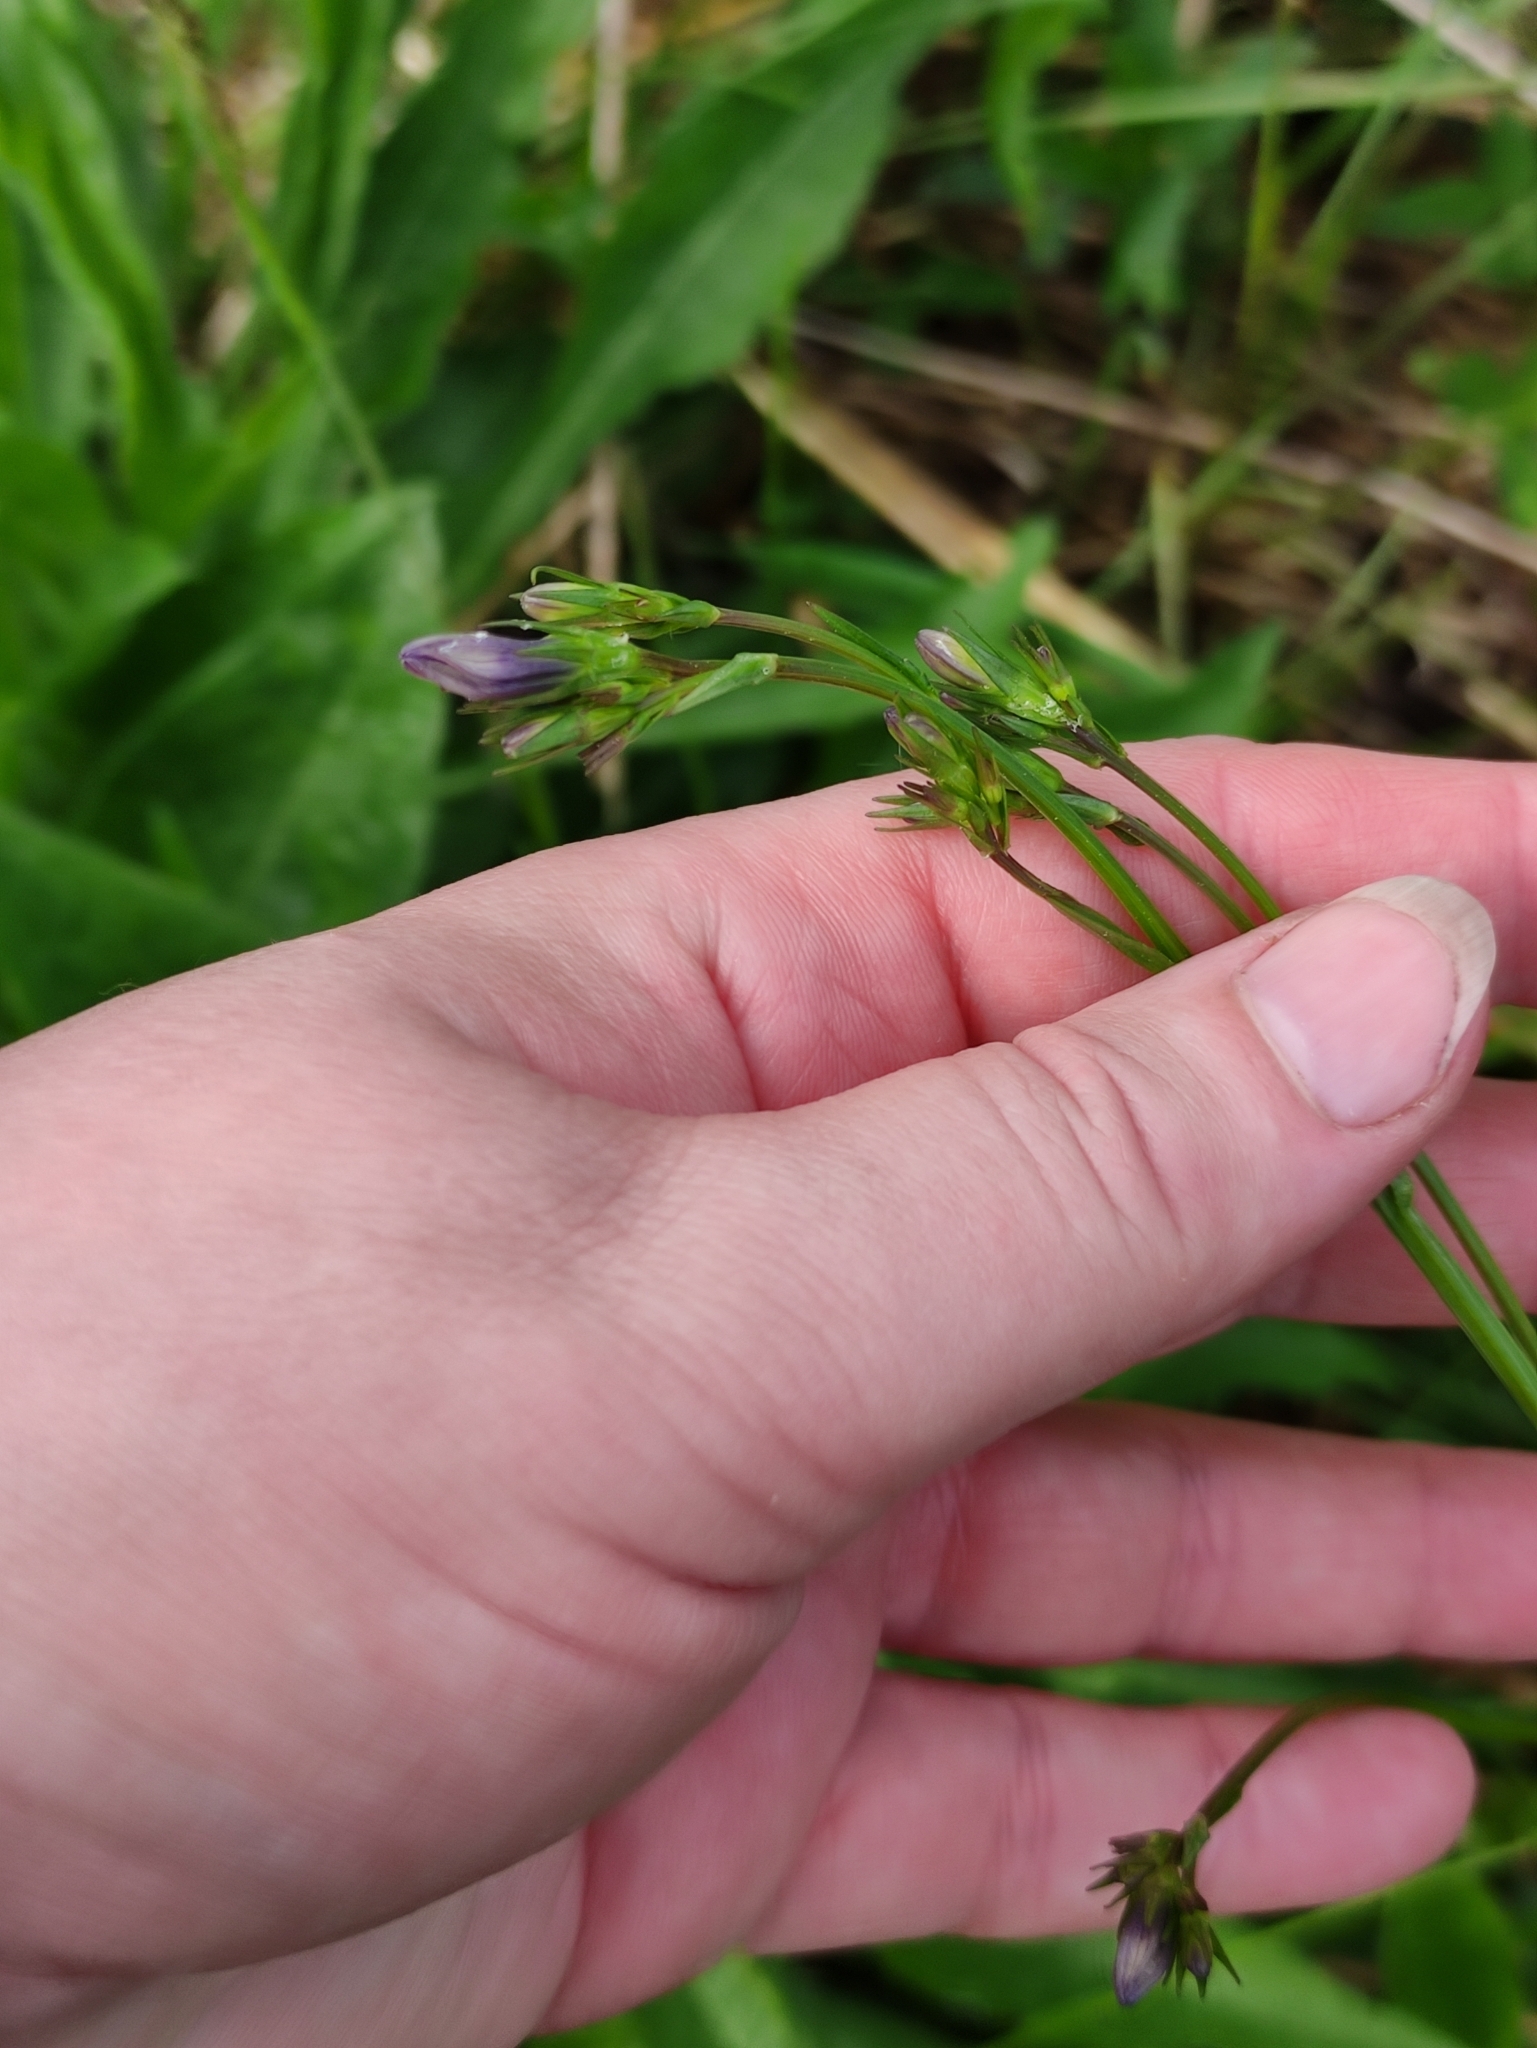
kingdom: Plantae
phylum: Tracheophyta
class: Magnoliopsida
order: Asterales
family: Campanulaceae
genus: Campanula
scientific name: Campanula patula
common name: Spreading bellflower
